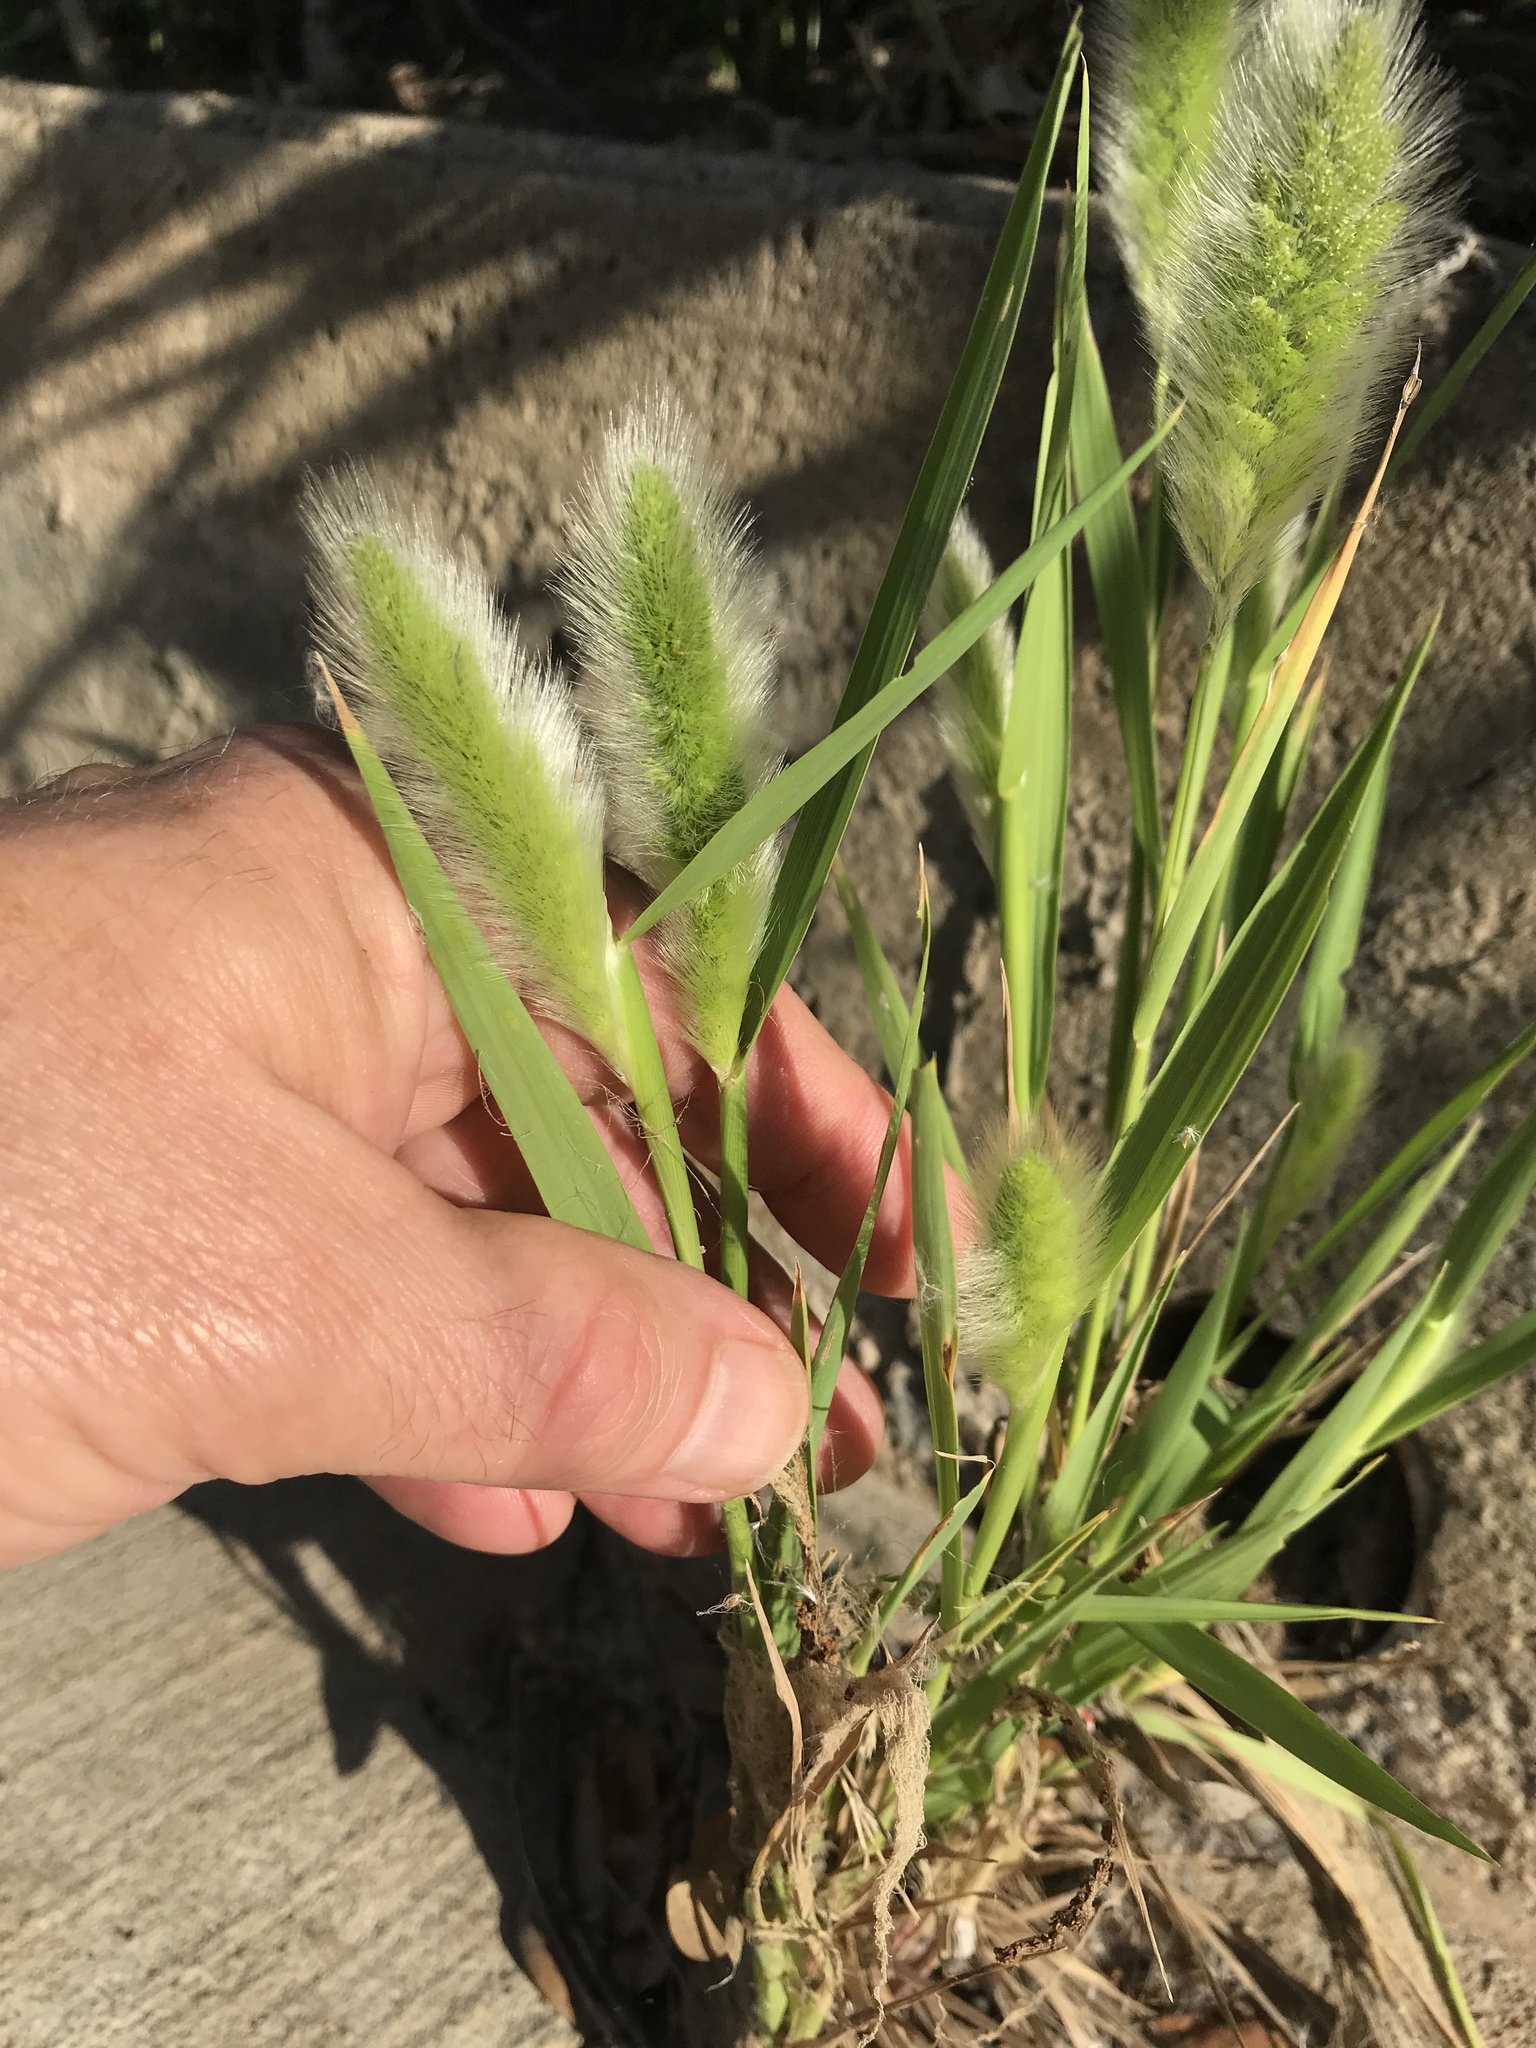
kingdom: Plantae
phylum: Tracheophyta
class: Liliopsida
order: Poales
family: Poaceae
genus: Polypogon
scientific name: Polypogon monspeliensis
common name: Annual rabbitsfoot grass
